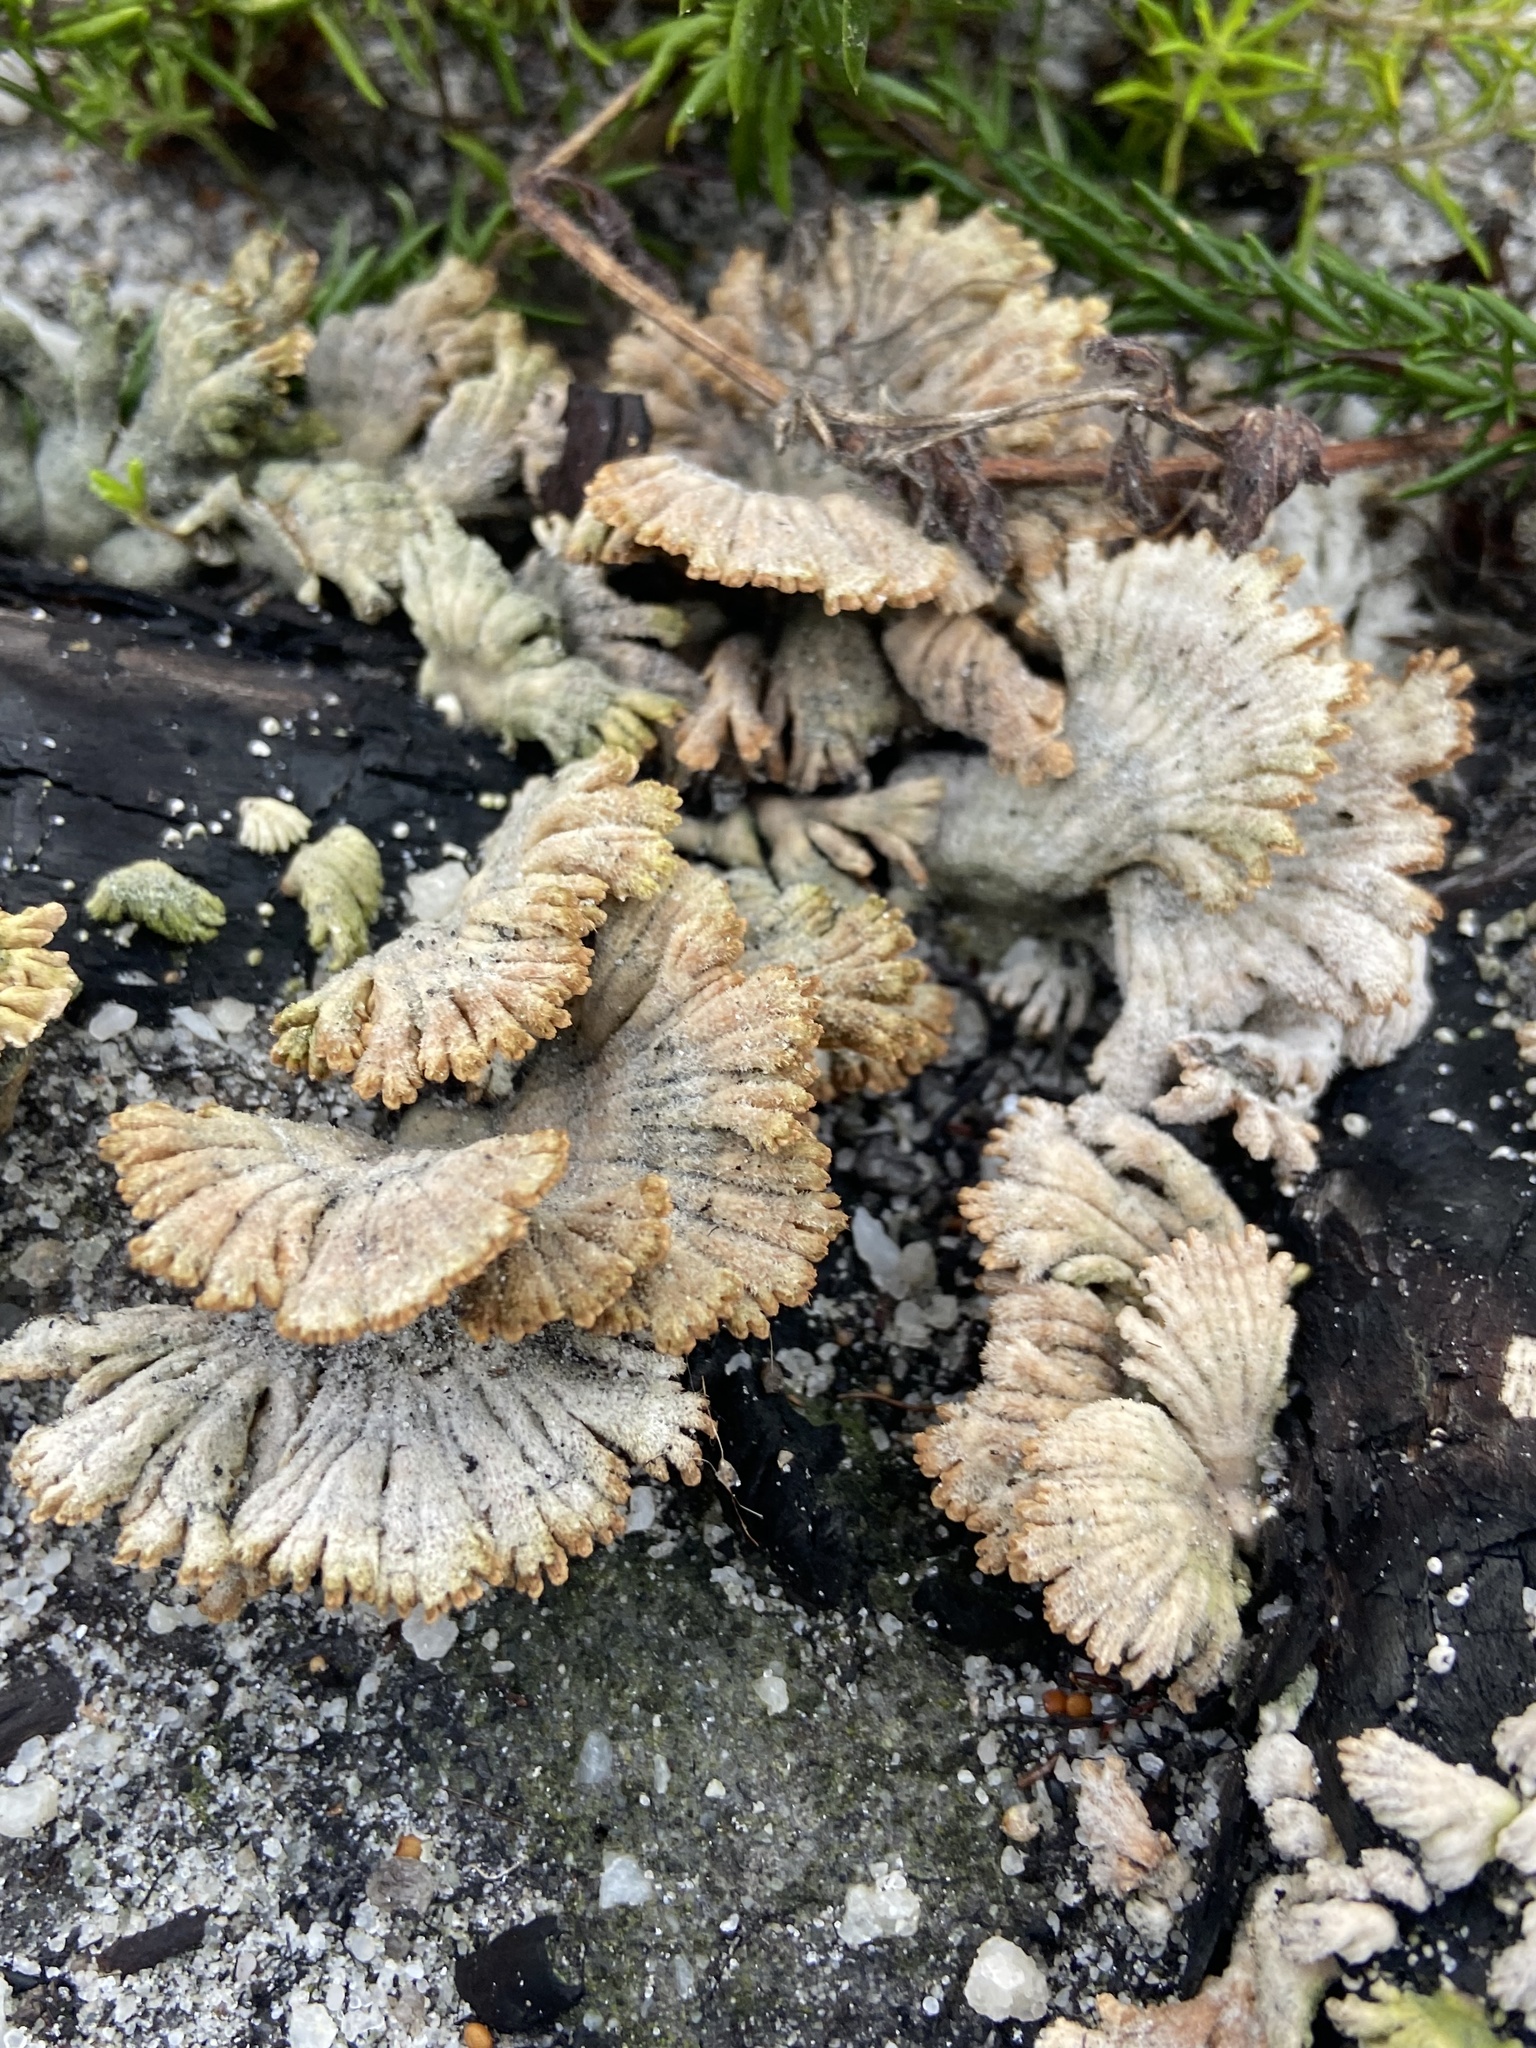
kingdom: Fungi
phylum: Basidiomycota
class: Agaricomycetes
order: Agaricales
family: Schizophyllaceae
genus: Schizophyllum
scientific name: Schizophyllum commune
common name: Common porecrust
